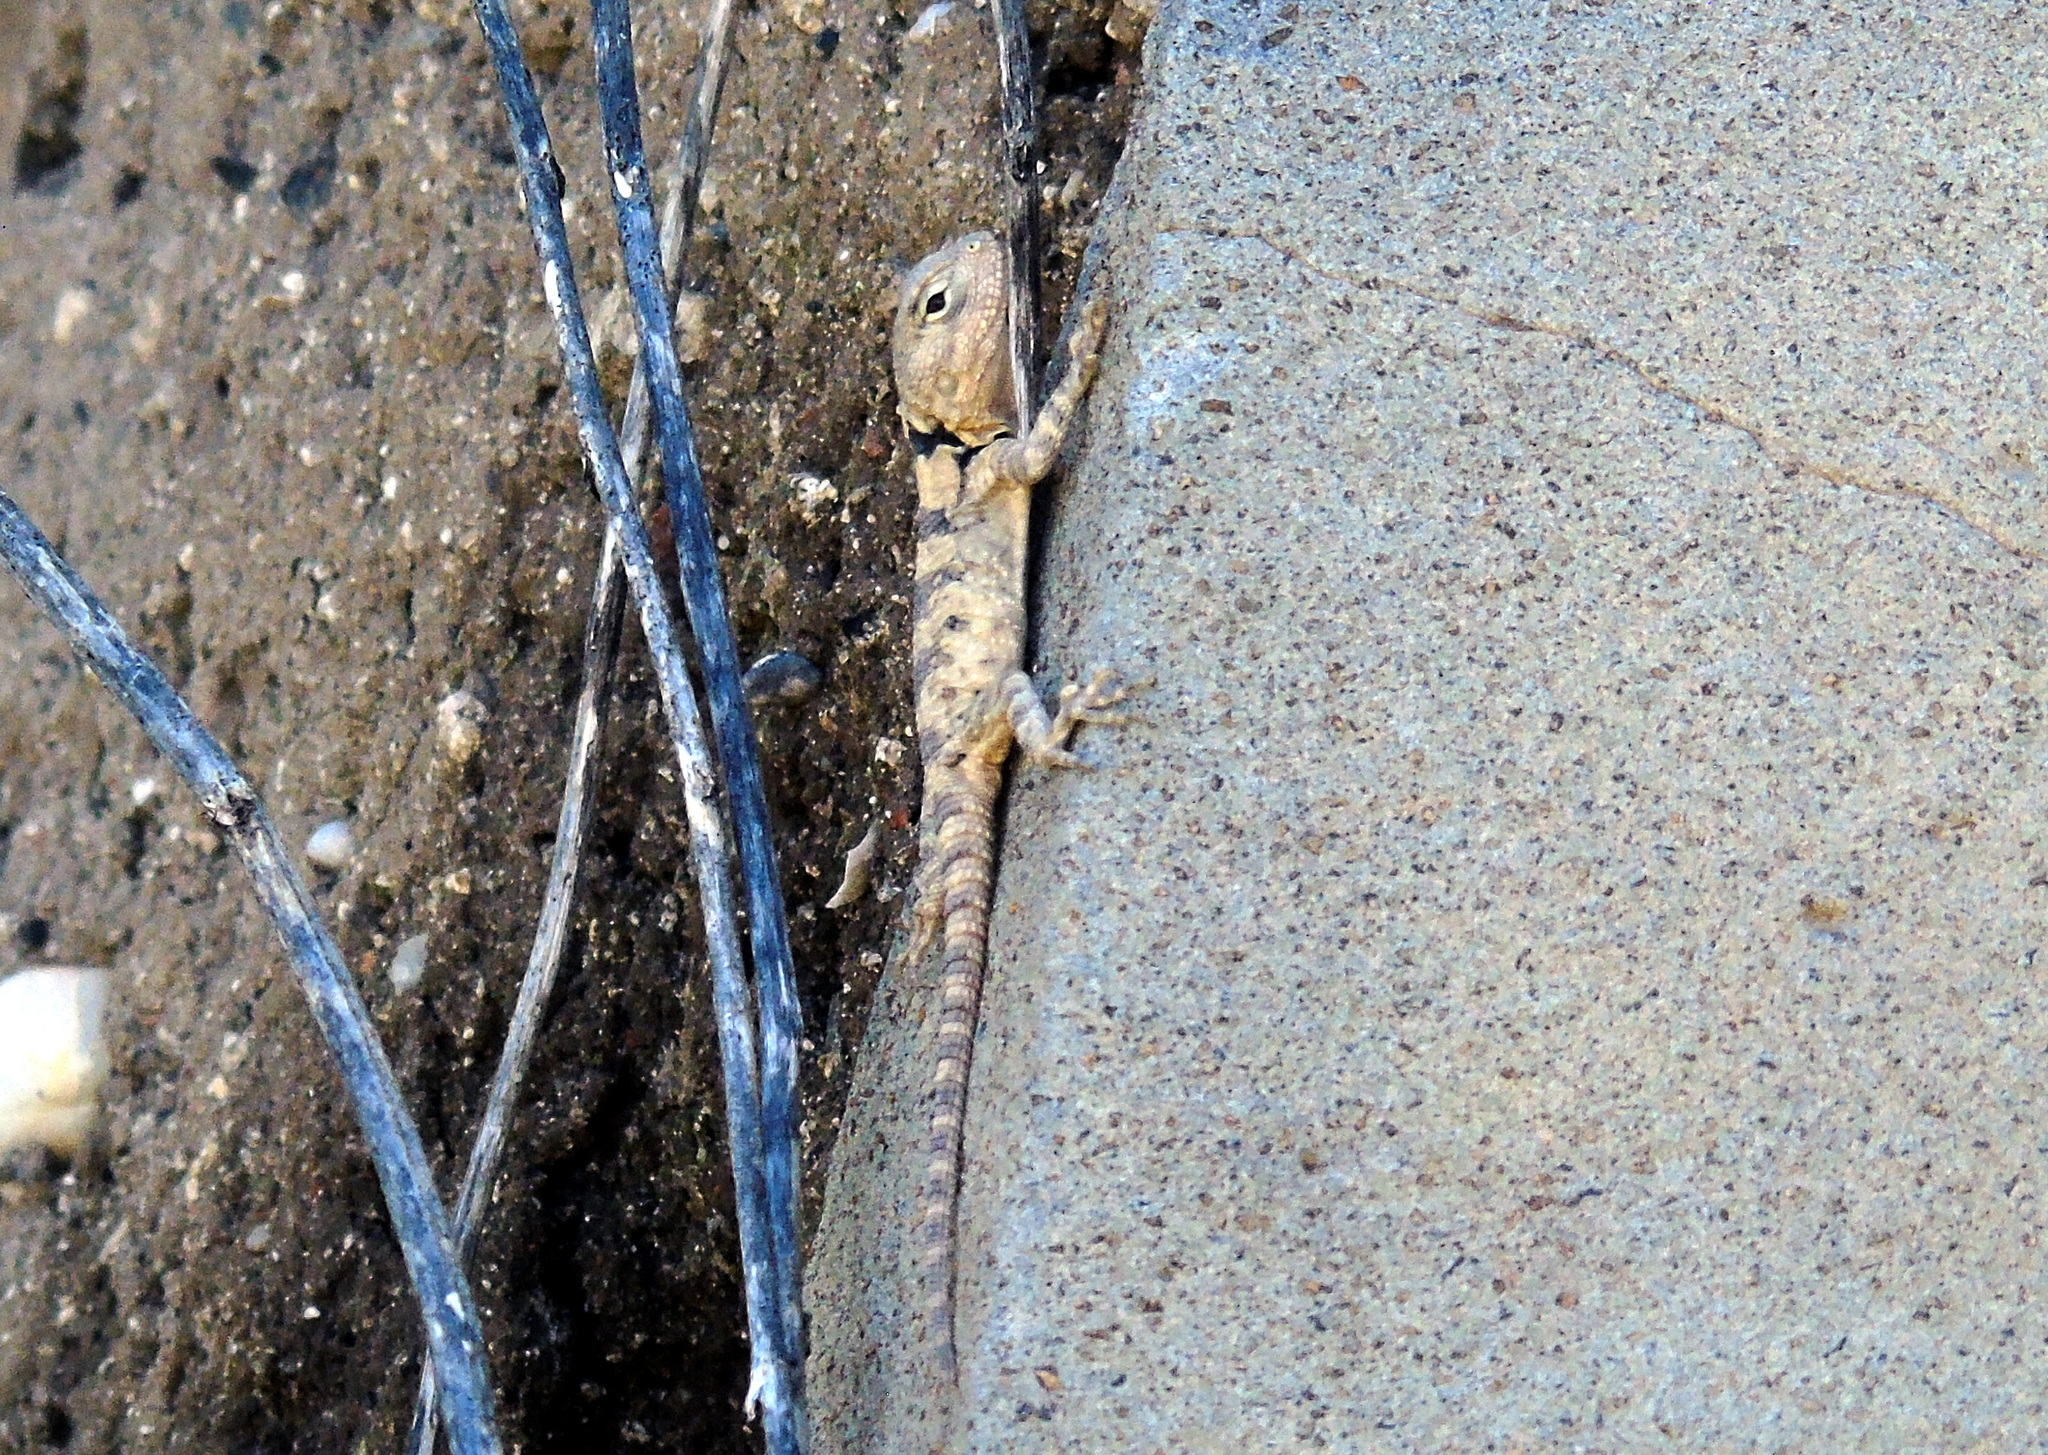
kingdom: Animalia
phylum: Chordata
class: Squamata
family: Agamidae
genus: Stellagama
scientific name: Stellagama stellio
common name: Starred agama
